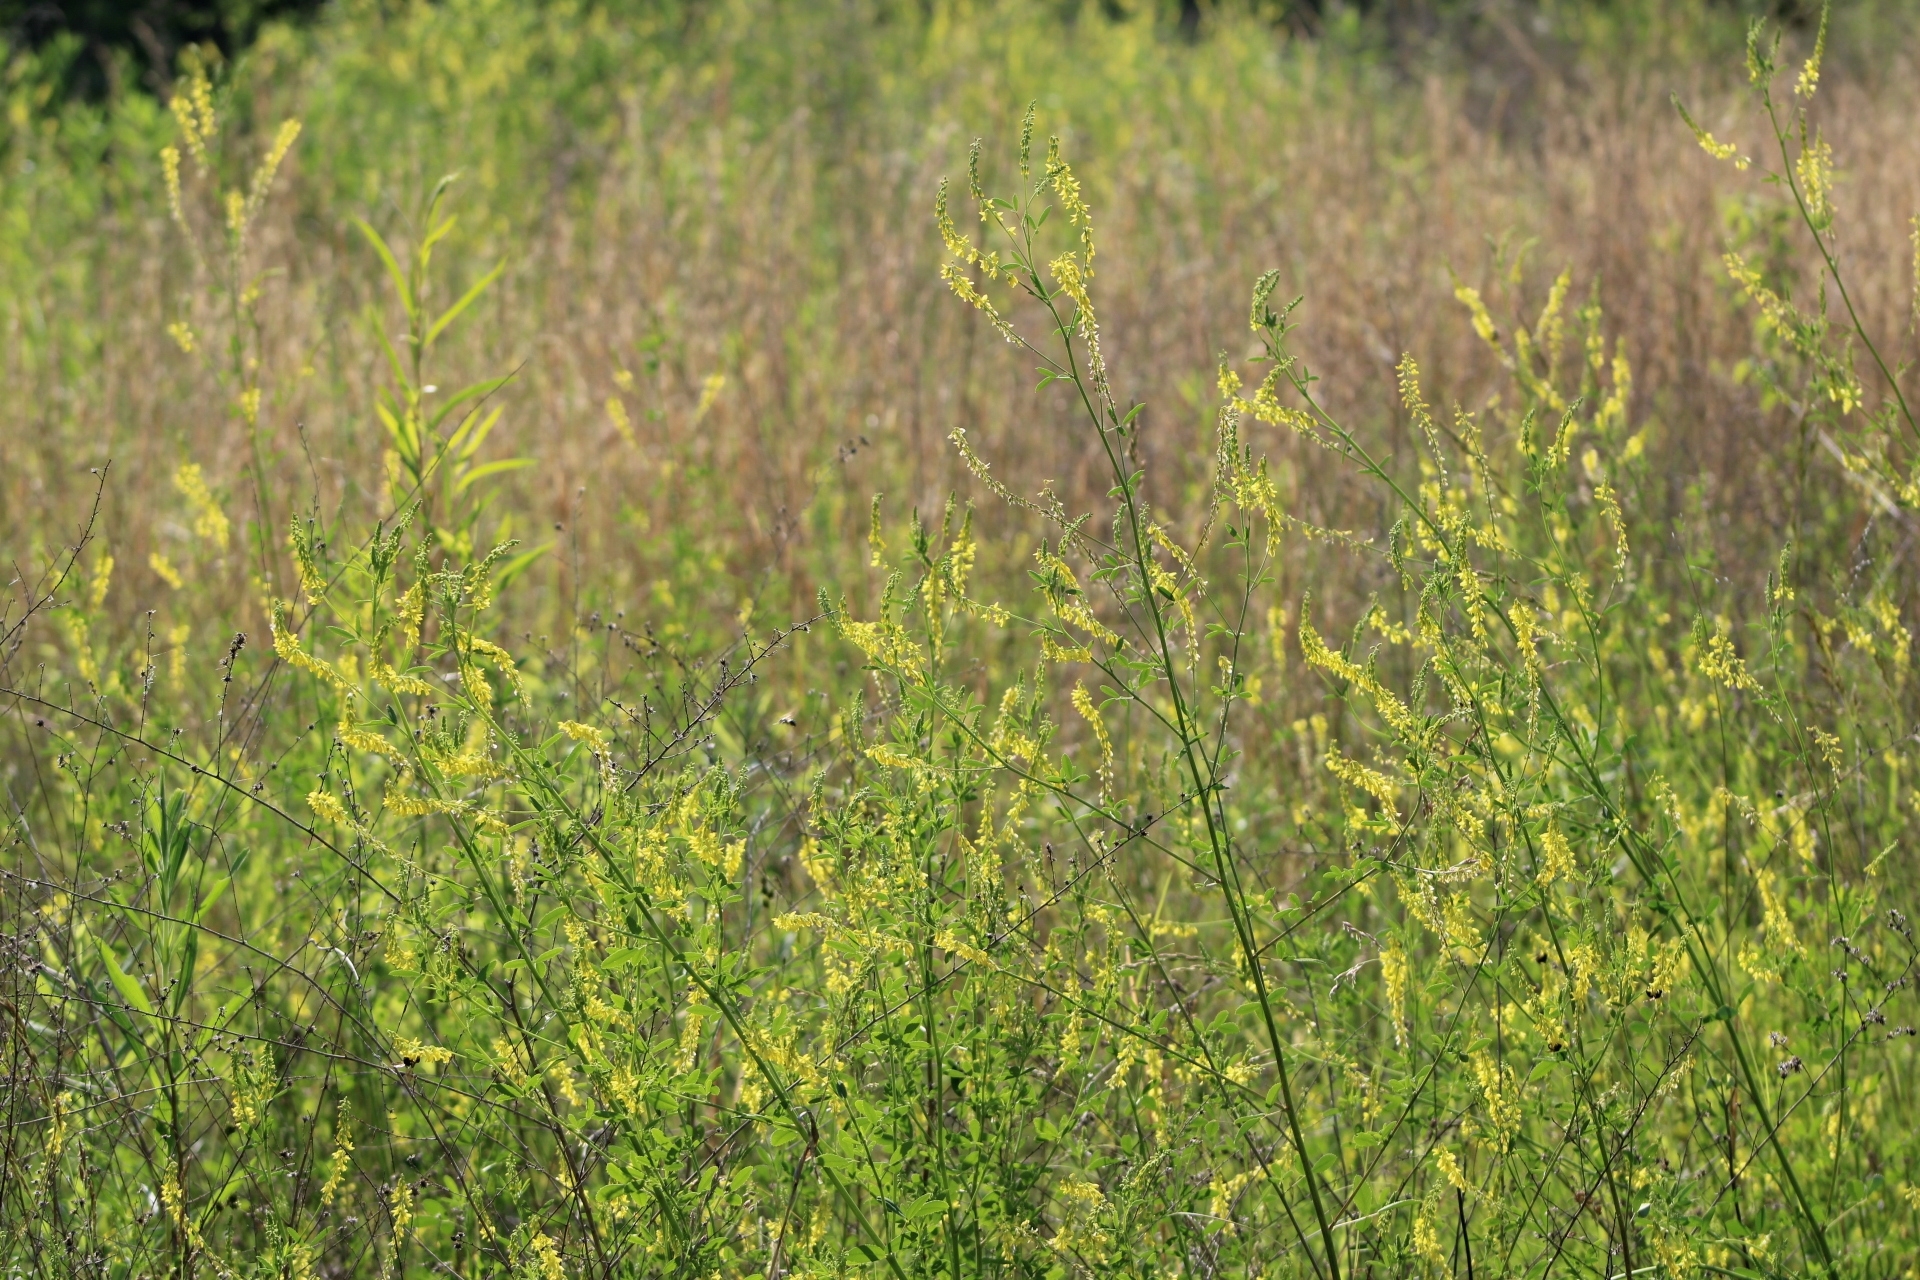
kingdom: Plantae
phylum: Tracheophyta
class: Magnoliopsida
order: Fabales
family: Fabaceae
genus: Melilotus
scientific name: Melilotus officinalis
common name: Sweetclover
